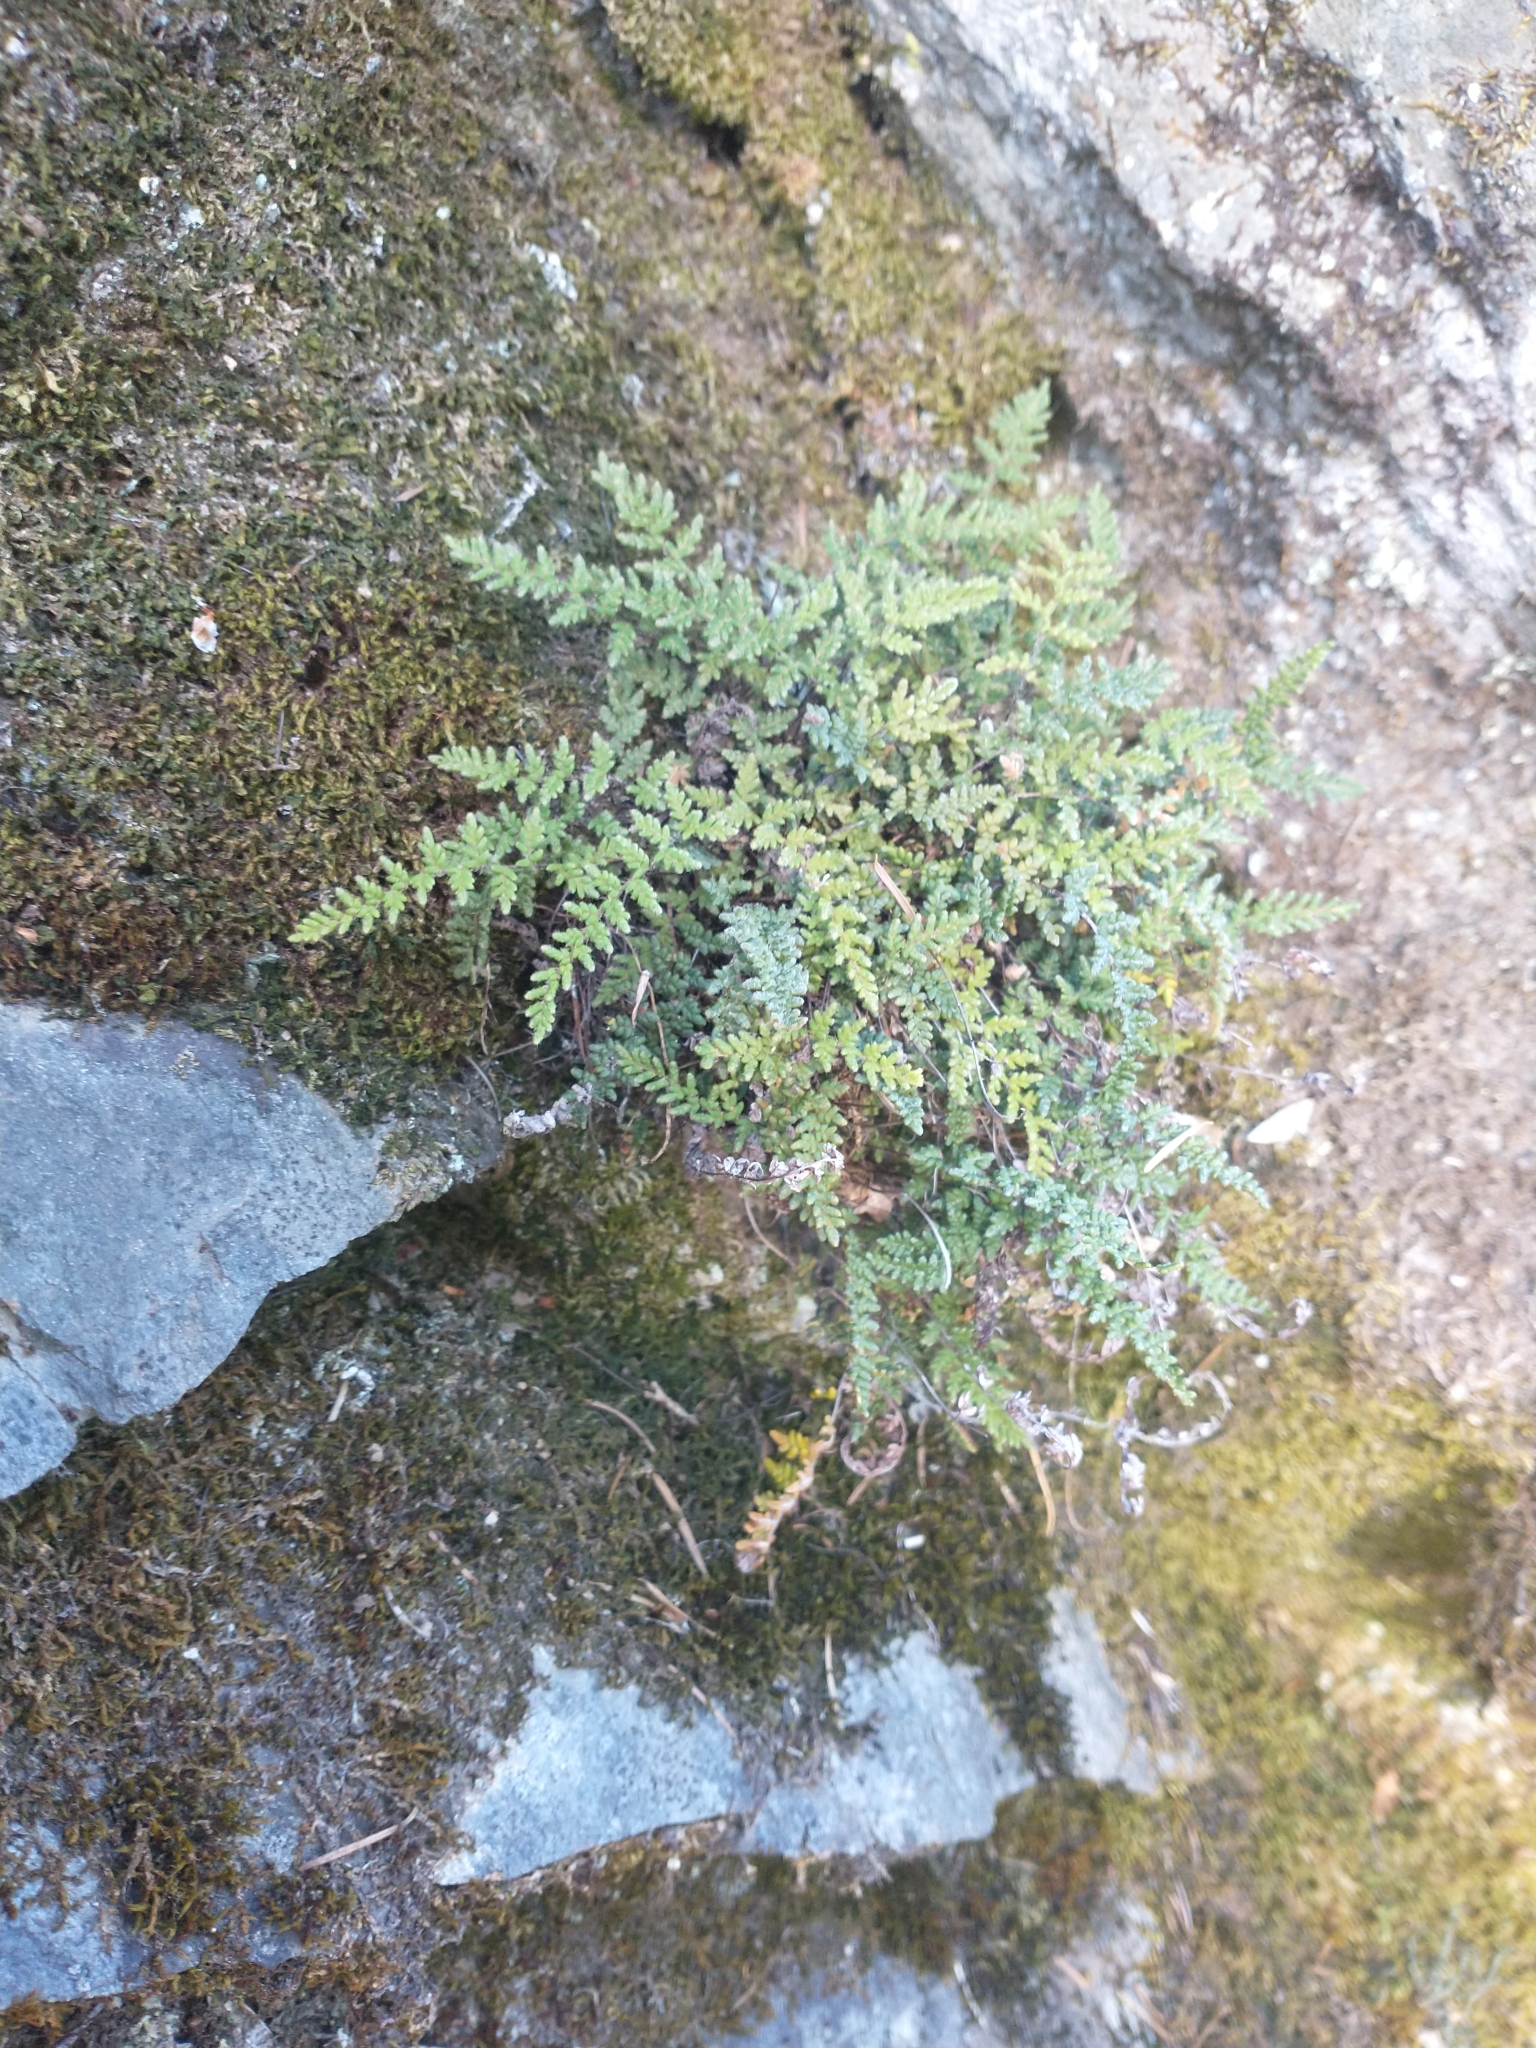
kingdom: Plantae
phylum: Tracheophyta
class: Polypodiopsida
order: Polypodiales
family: Pteridaceae
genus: Myriopteris
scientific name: Myriopteris gracillima
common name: Lace fern
